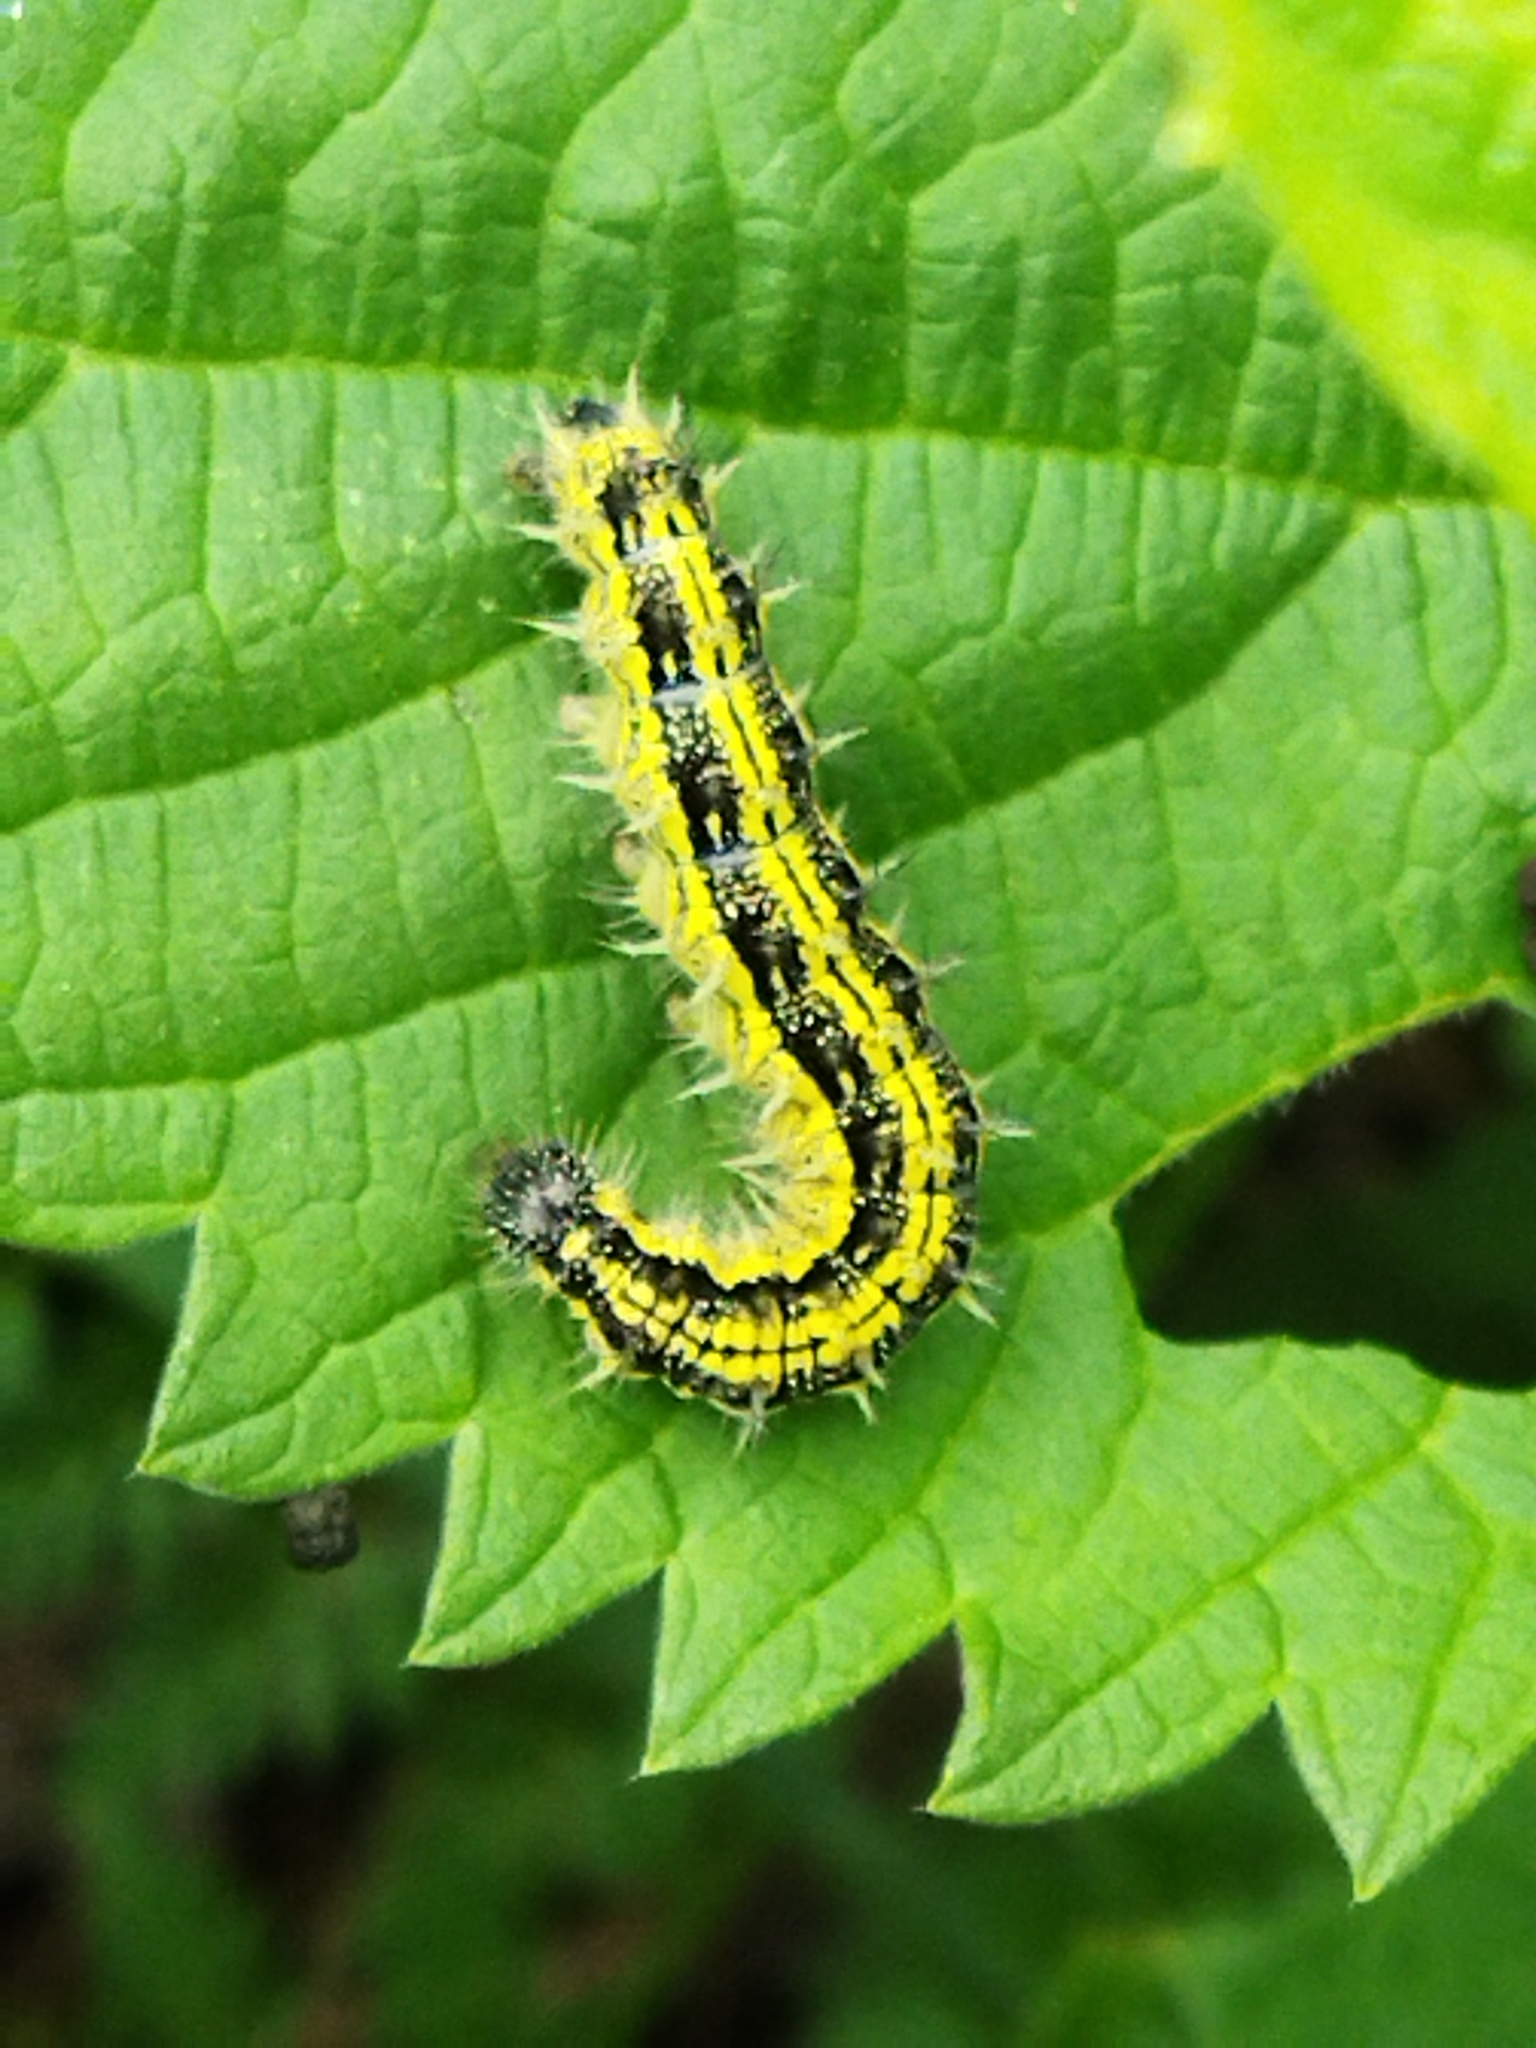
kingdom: Animalia
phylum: Arthropoda
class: Insecta
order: Lepidoptera
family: Nymphalidae
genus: Aglais
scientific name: Aglais urticae
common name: Small tortoiseshell
